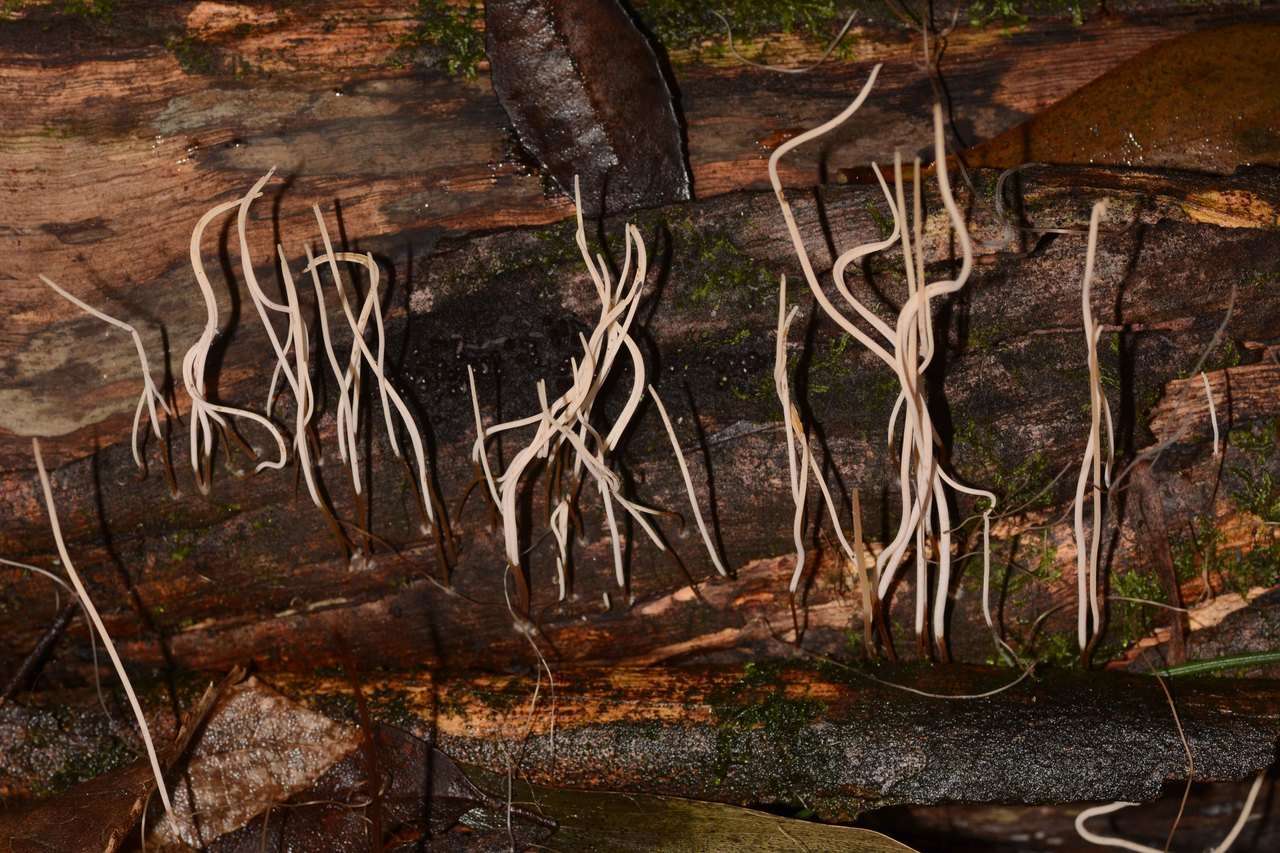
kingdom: Fungi
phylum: Basidiomycota
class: Agaricomycetes
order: Agaricales
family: Typhulaceae
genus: Typhula
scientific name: Typhula juncea
